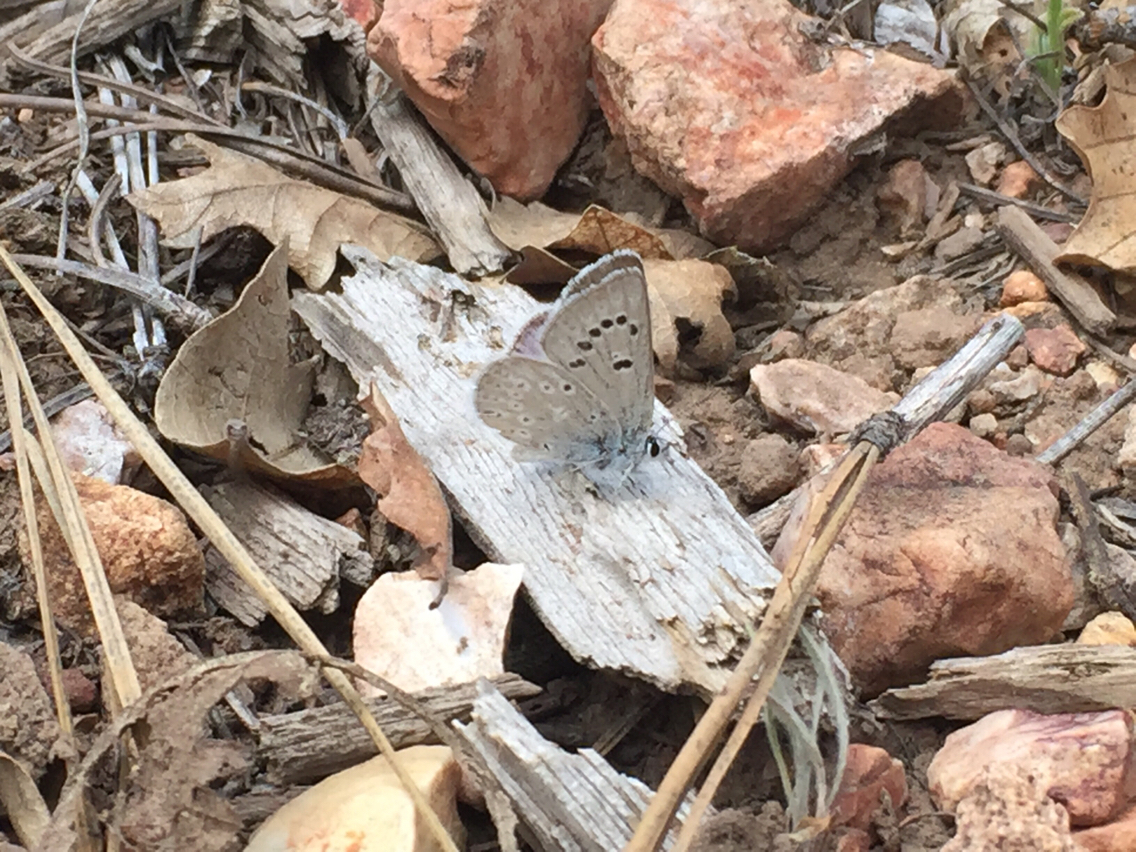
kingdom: Animalia
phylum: Arthropoda
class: Insecta
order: Lepidoptera
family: Lycaenidae
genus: Icaricia
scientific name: Icaricia icarioides
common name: Boisduval's blue
